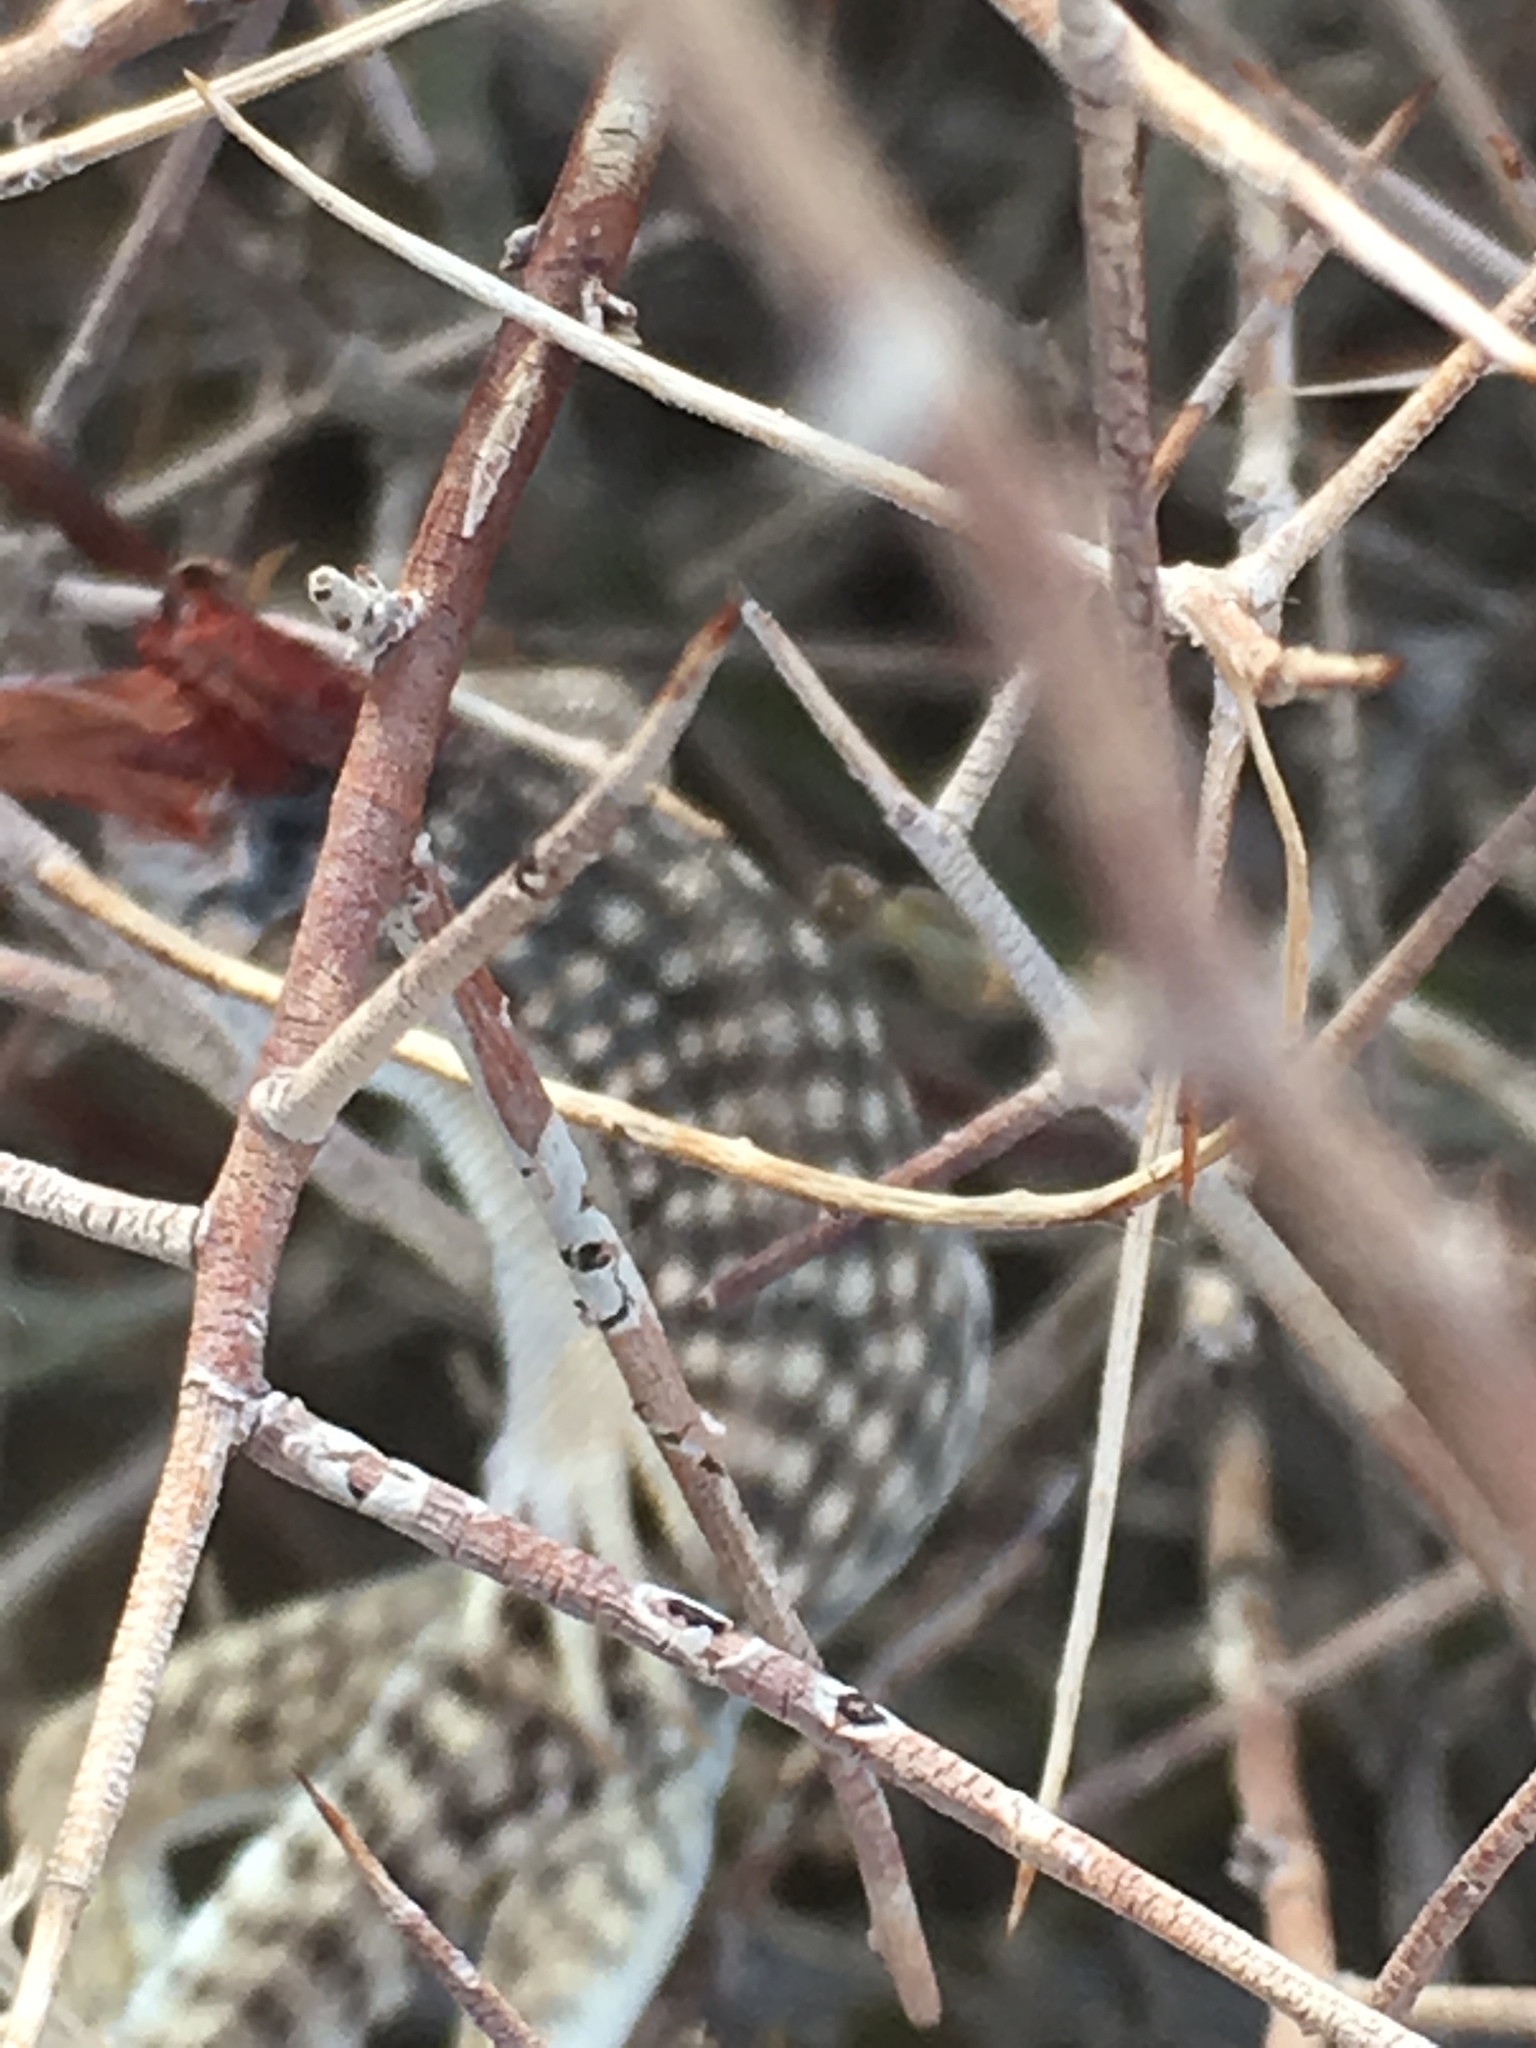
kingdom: Animalia
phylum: Chordata
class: Squamata
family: Iguanidae
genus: Dipsosaurus
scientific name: Dipsosaurus dorsalis
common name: Desert iguana
